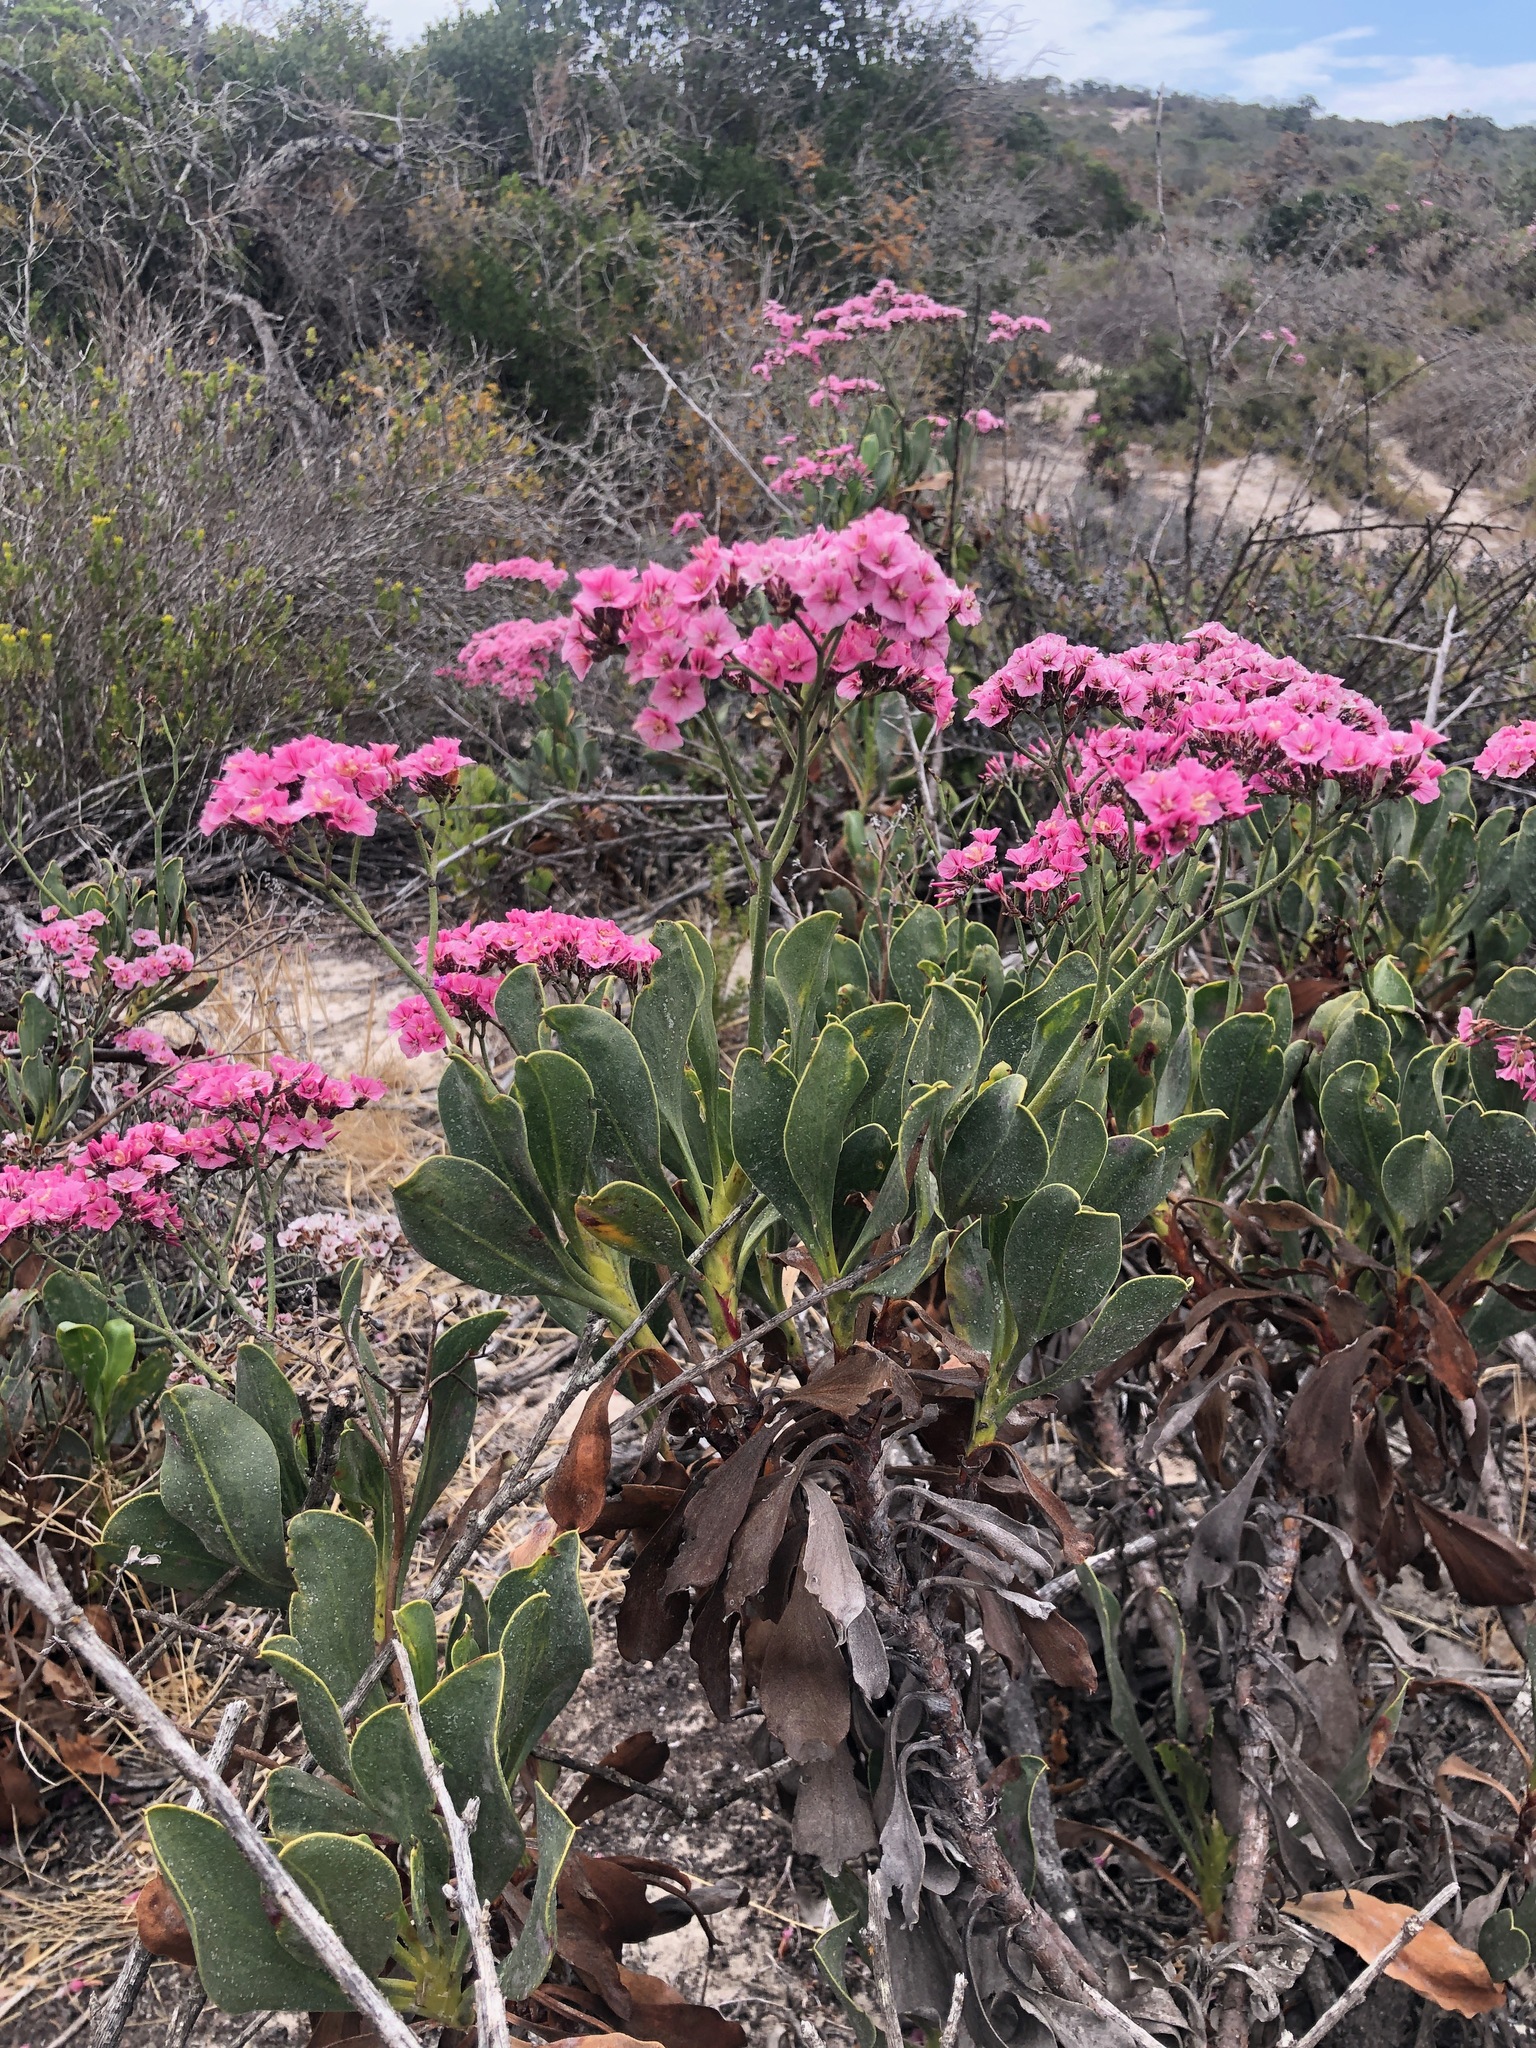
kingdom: Plantae
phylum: Tracheophyta
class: Magnoliopsida
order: Caryophyllales
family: Plumbaginaceae
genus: Limonium
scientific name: Limonium peregrinum
